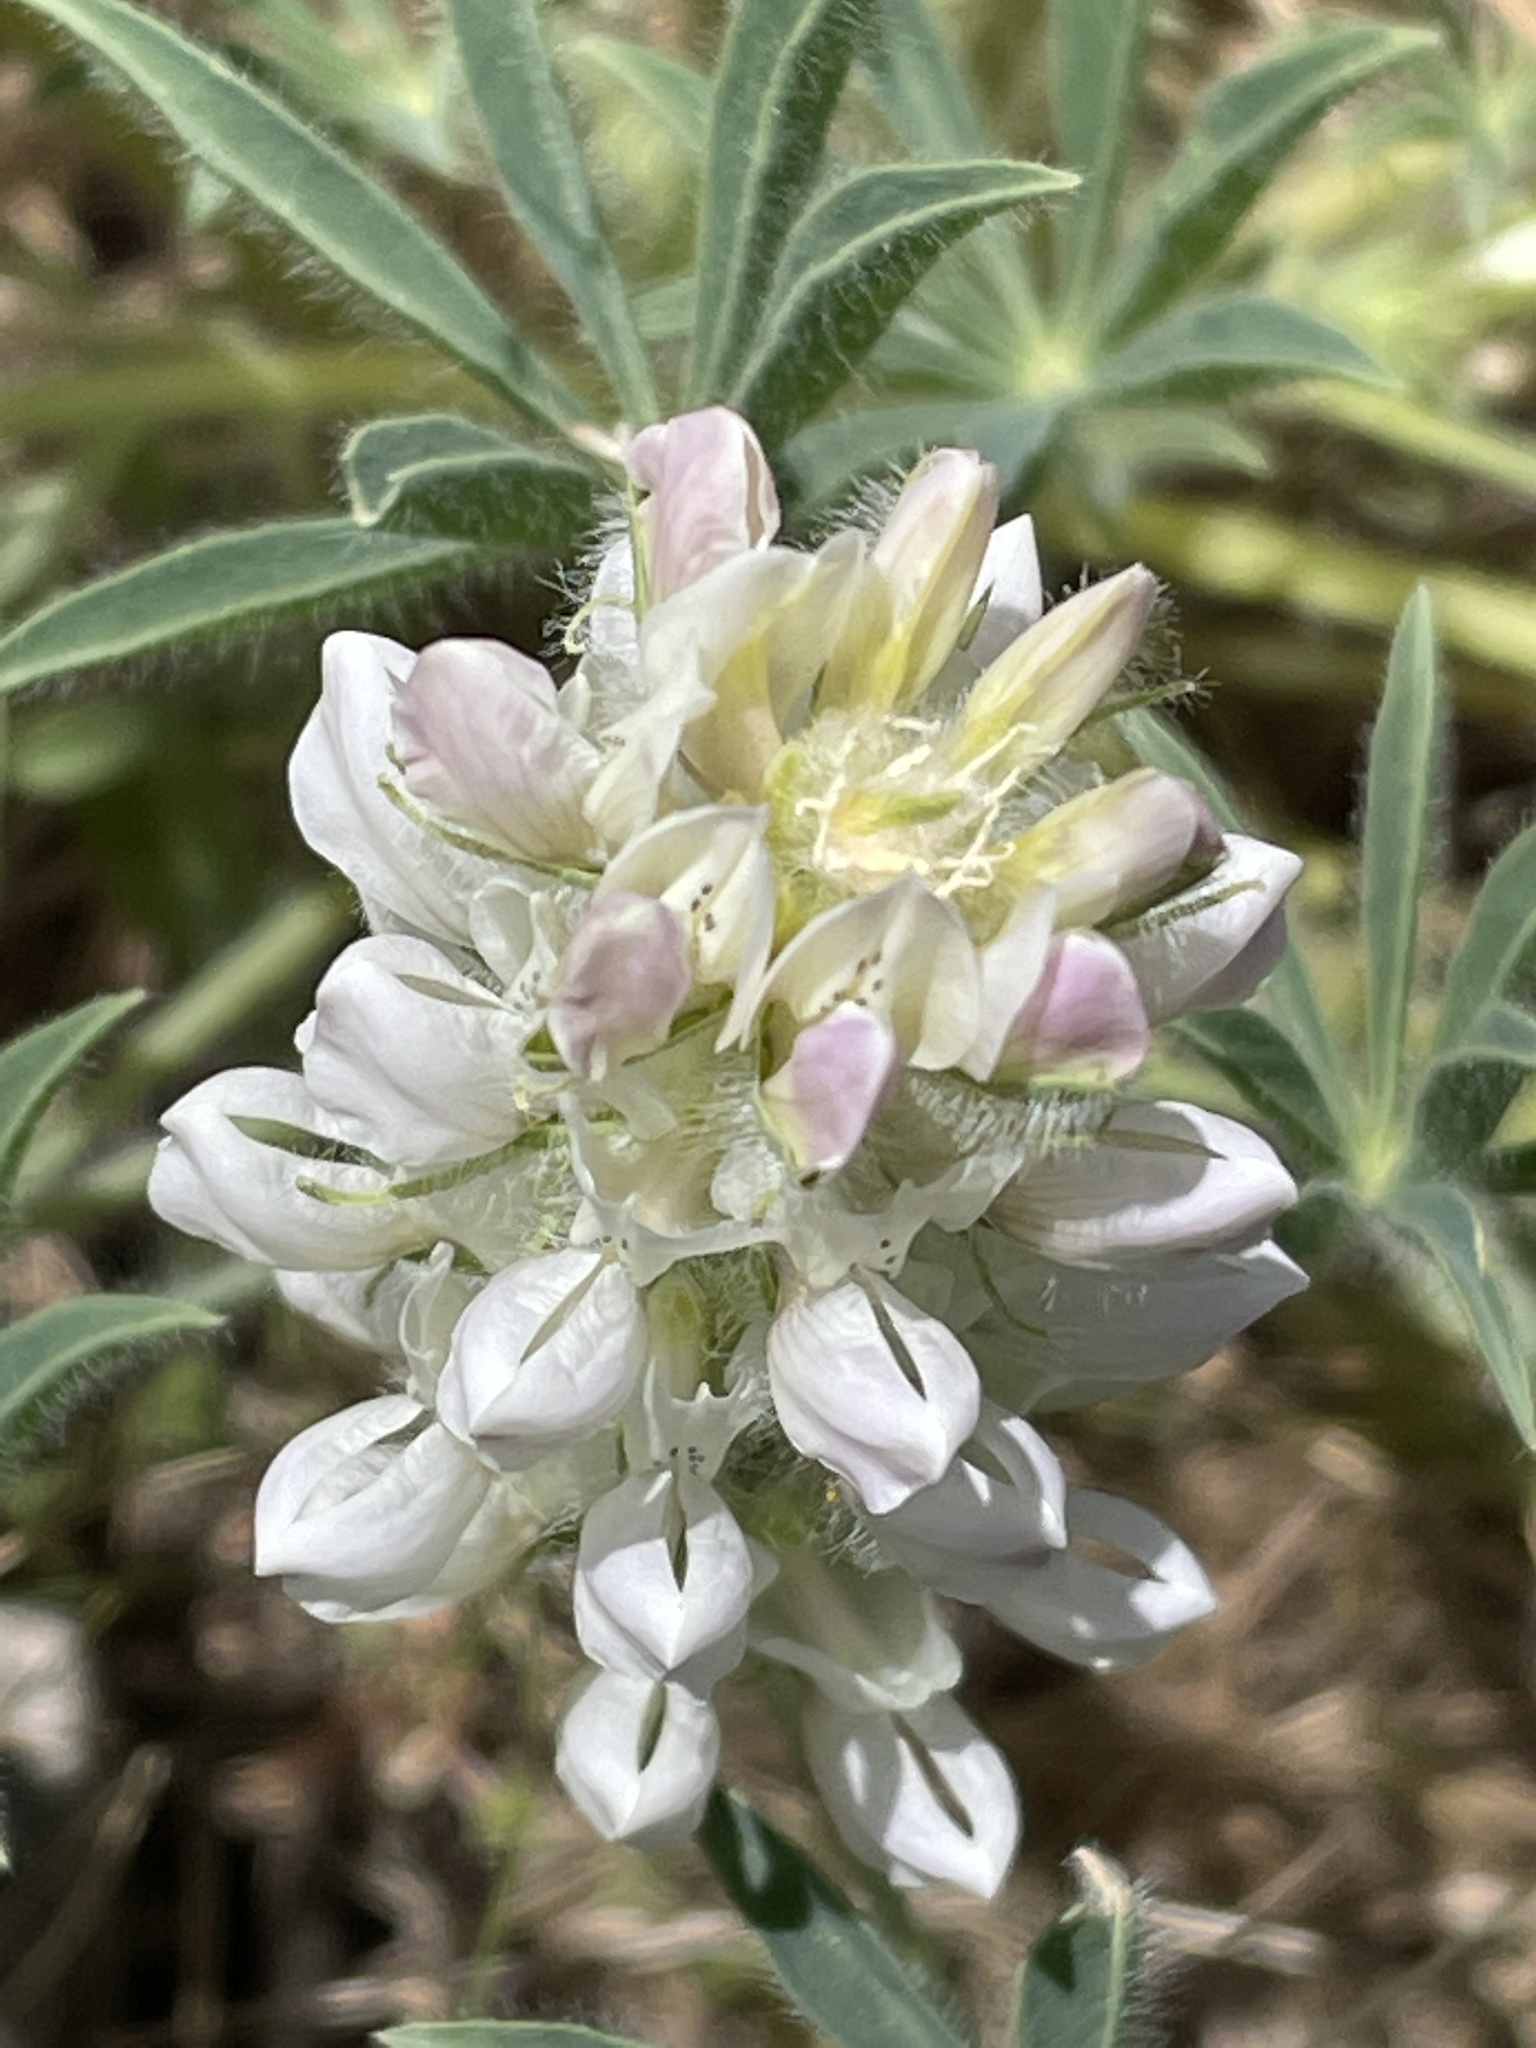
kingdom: Plantae
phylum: Tracheophyta
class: Magnoliopsida
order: Fabales
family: Fabaceae
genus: Lupinus
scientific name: Lupinus microcarpus
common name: Chick lupine
